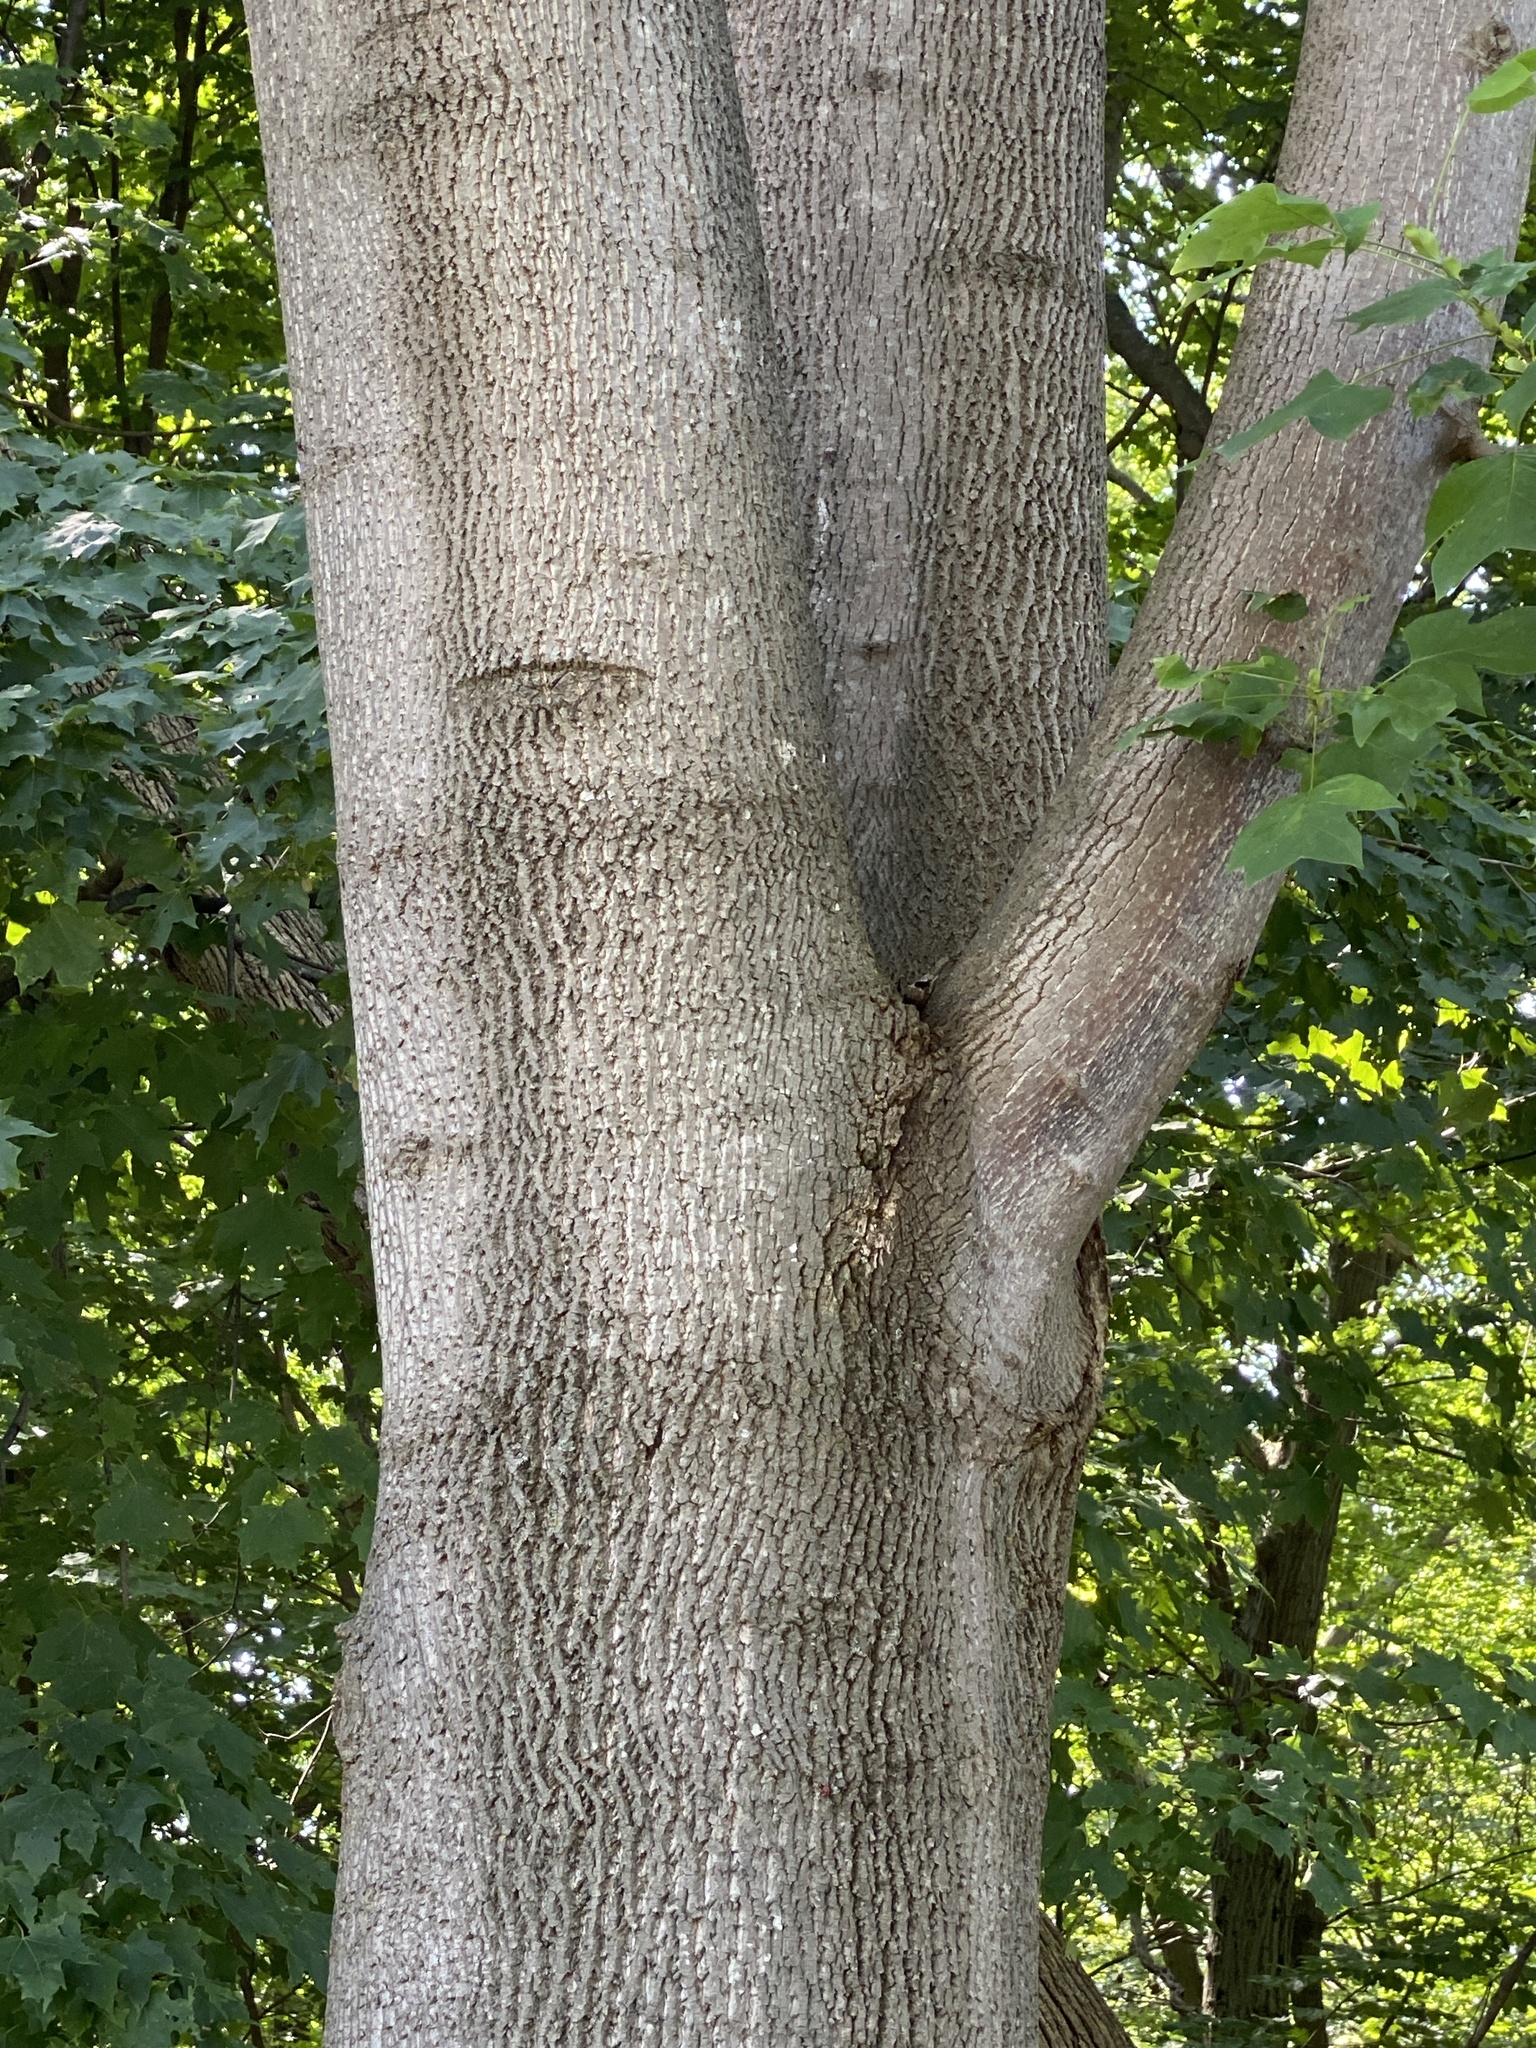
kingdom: Plantae
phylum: Tracheophyta
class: Magnoliopsida
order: Magnoliales
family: Magnoliaceae
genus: Liriodendron
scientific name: Liriodendron tulipifera
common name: Tulip tree
